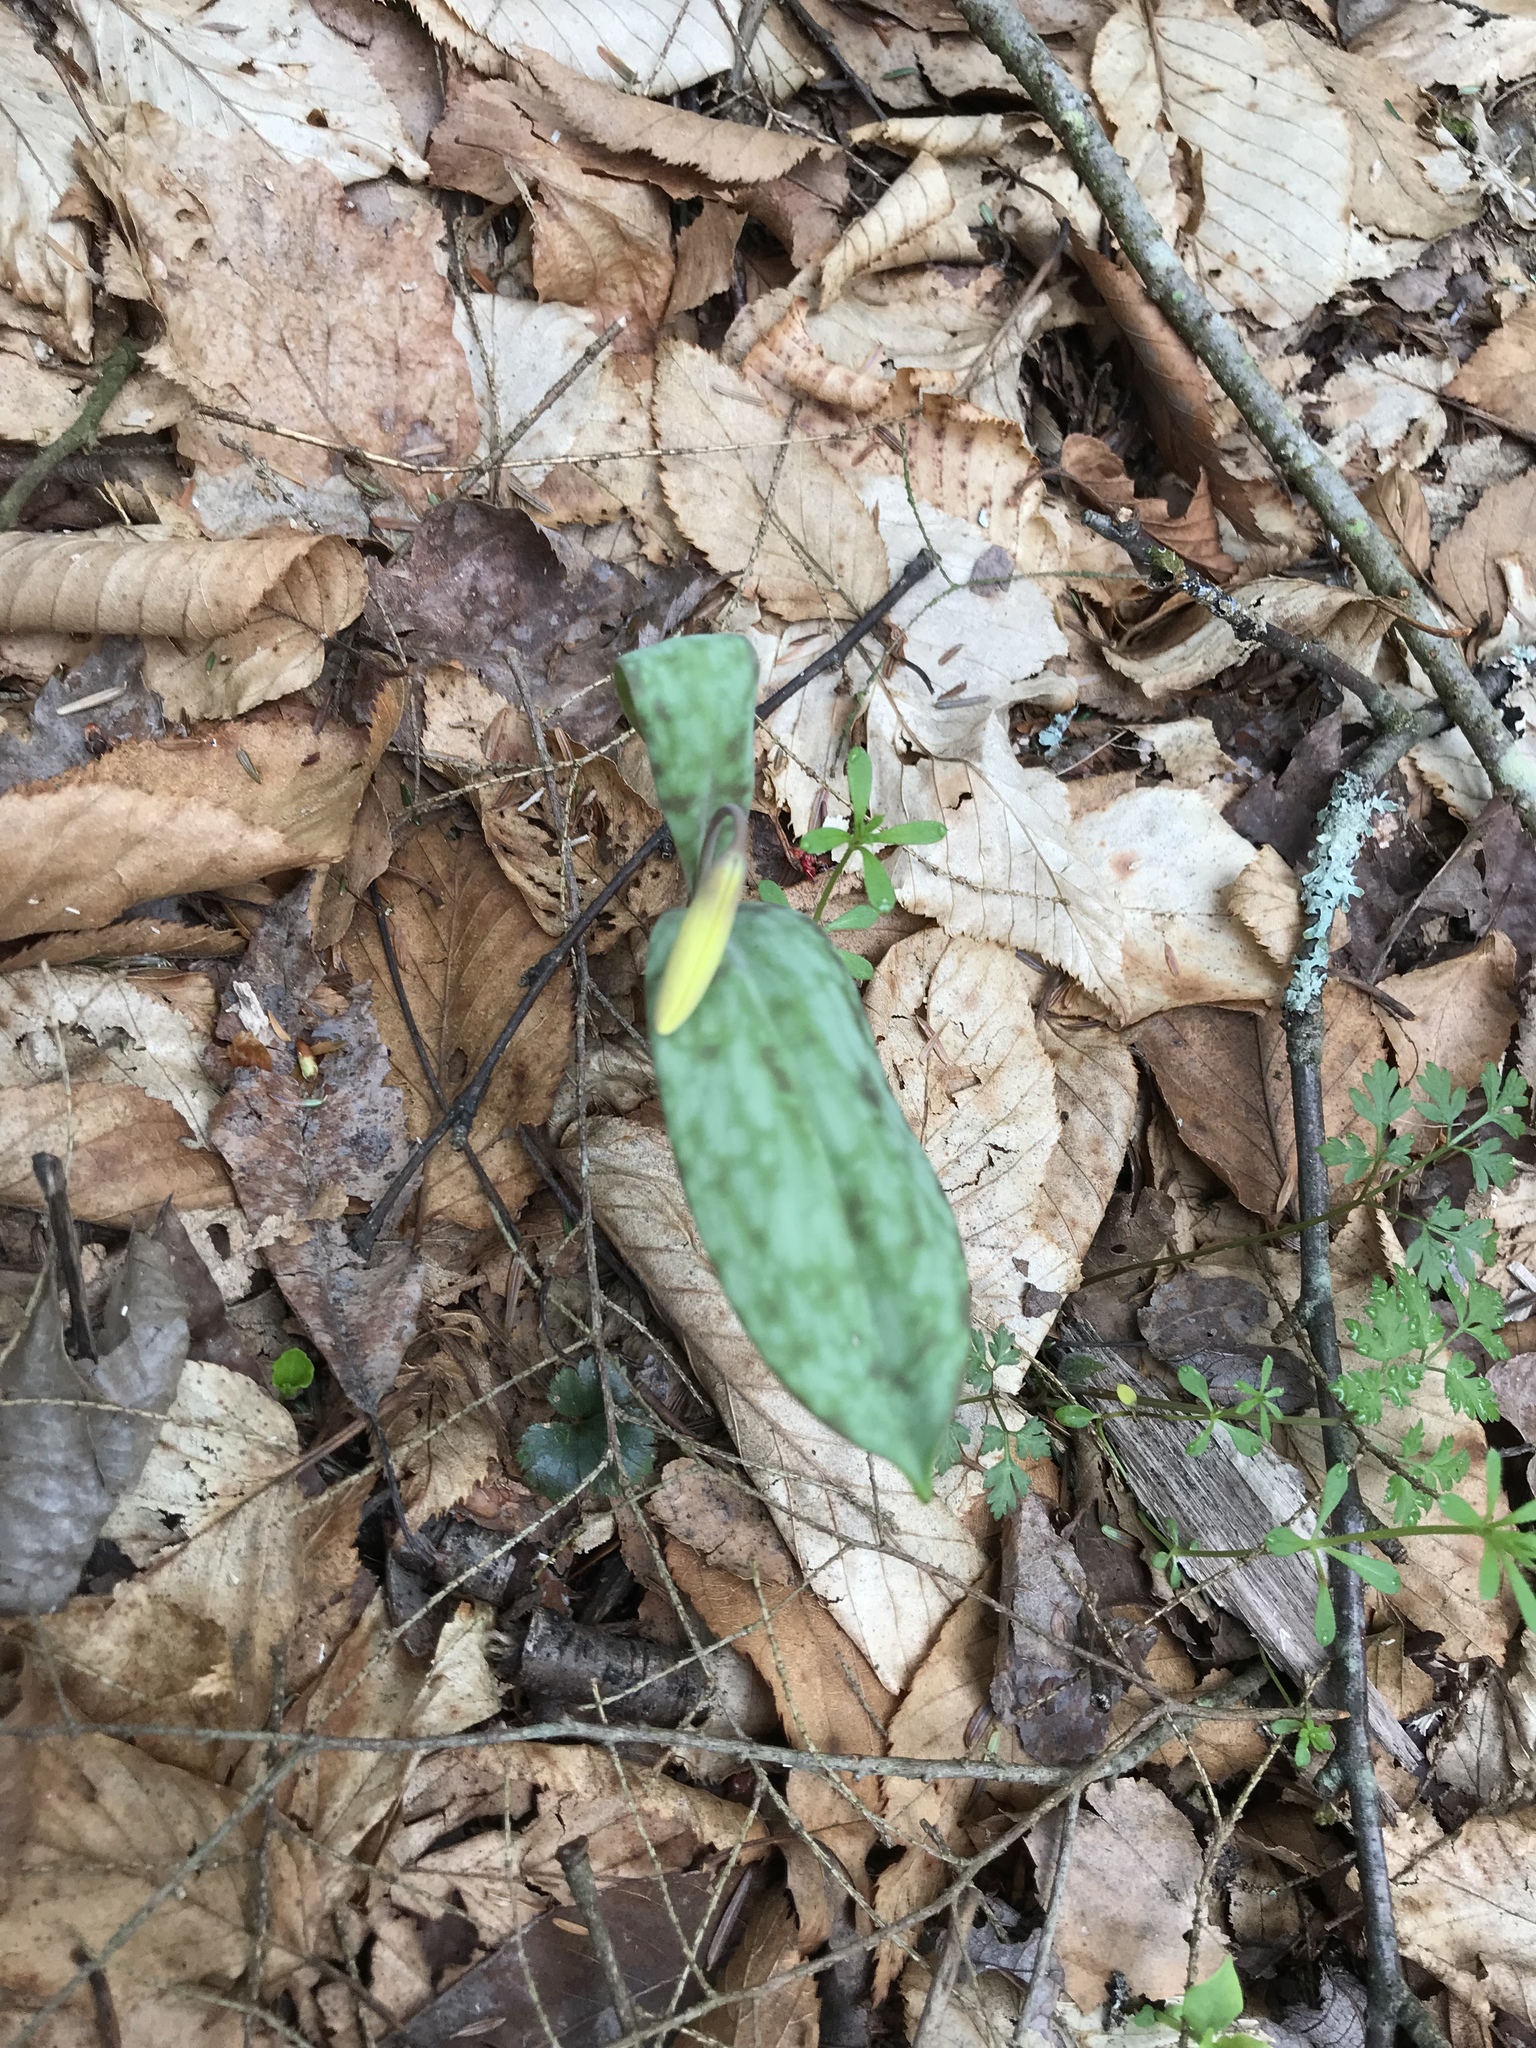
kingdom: Plantae
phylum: Tracheophyta
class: Liliopsida
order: Liliales
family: Liliaceae
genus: Erythronium
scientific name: Erythronium americanum
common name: Yellow adder's-tongue
